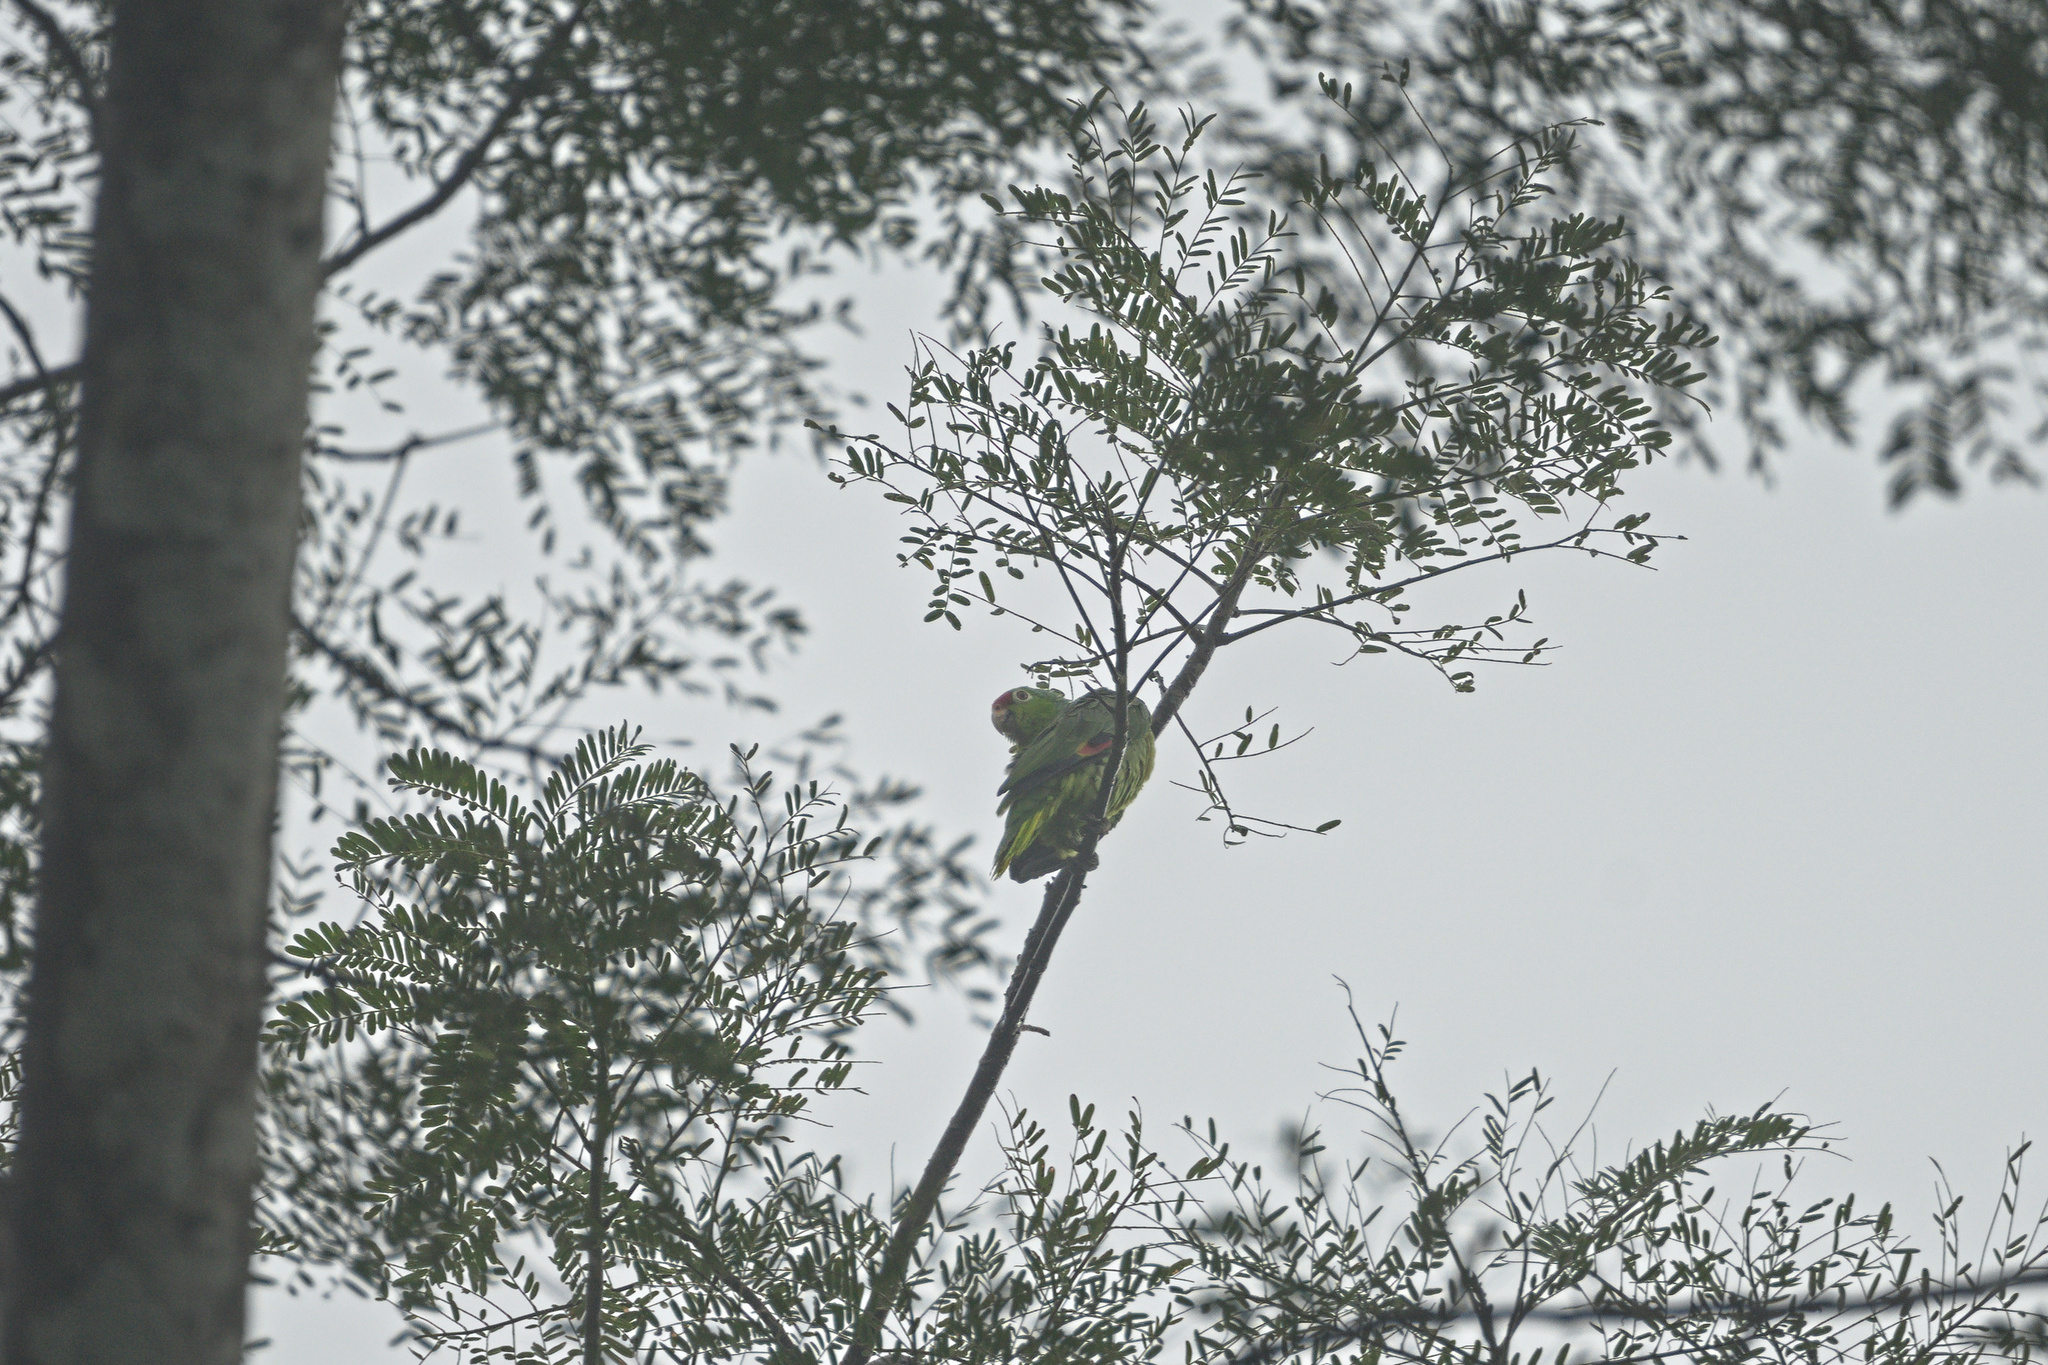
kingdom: Animalia
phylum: Chordata
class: Aves
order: Psittaciformes
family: Psittacidae
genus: Amazona
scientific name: Amazona autumnalis
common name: Red-lored amazon
